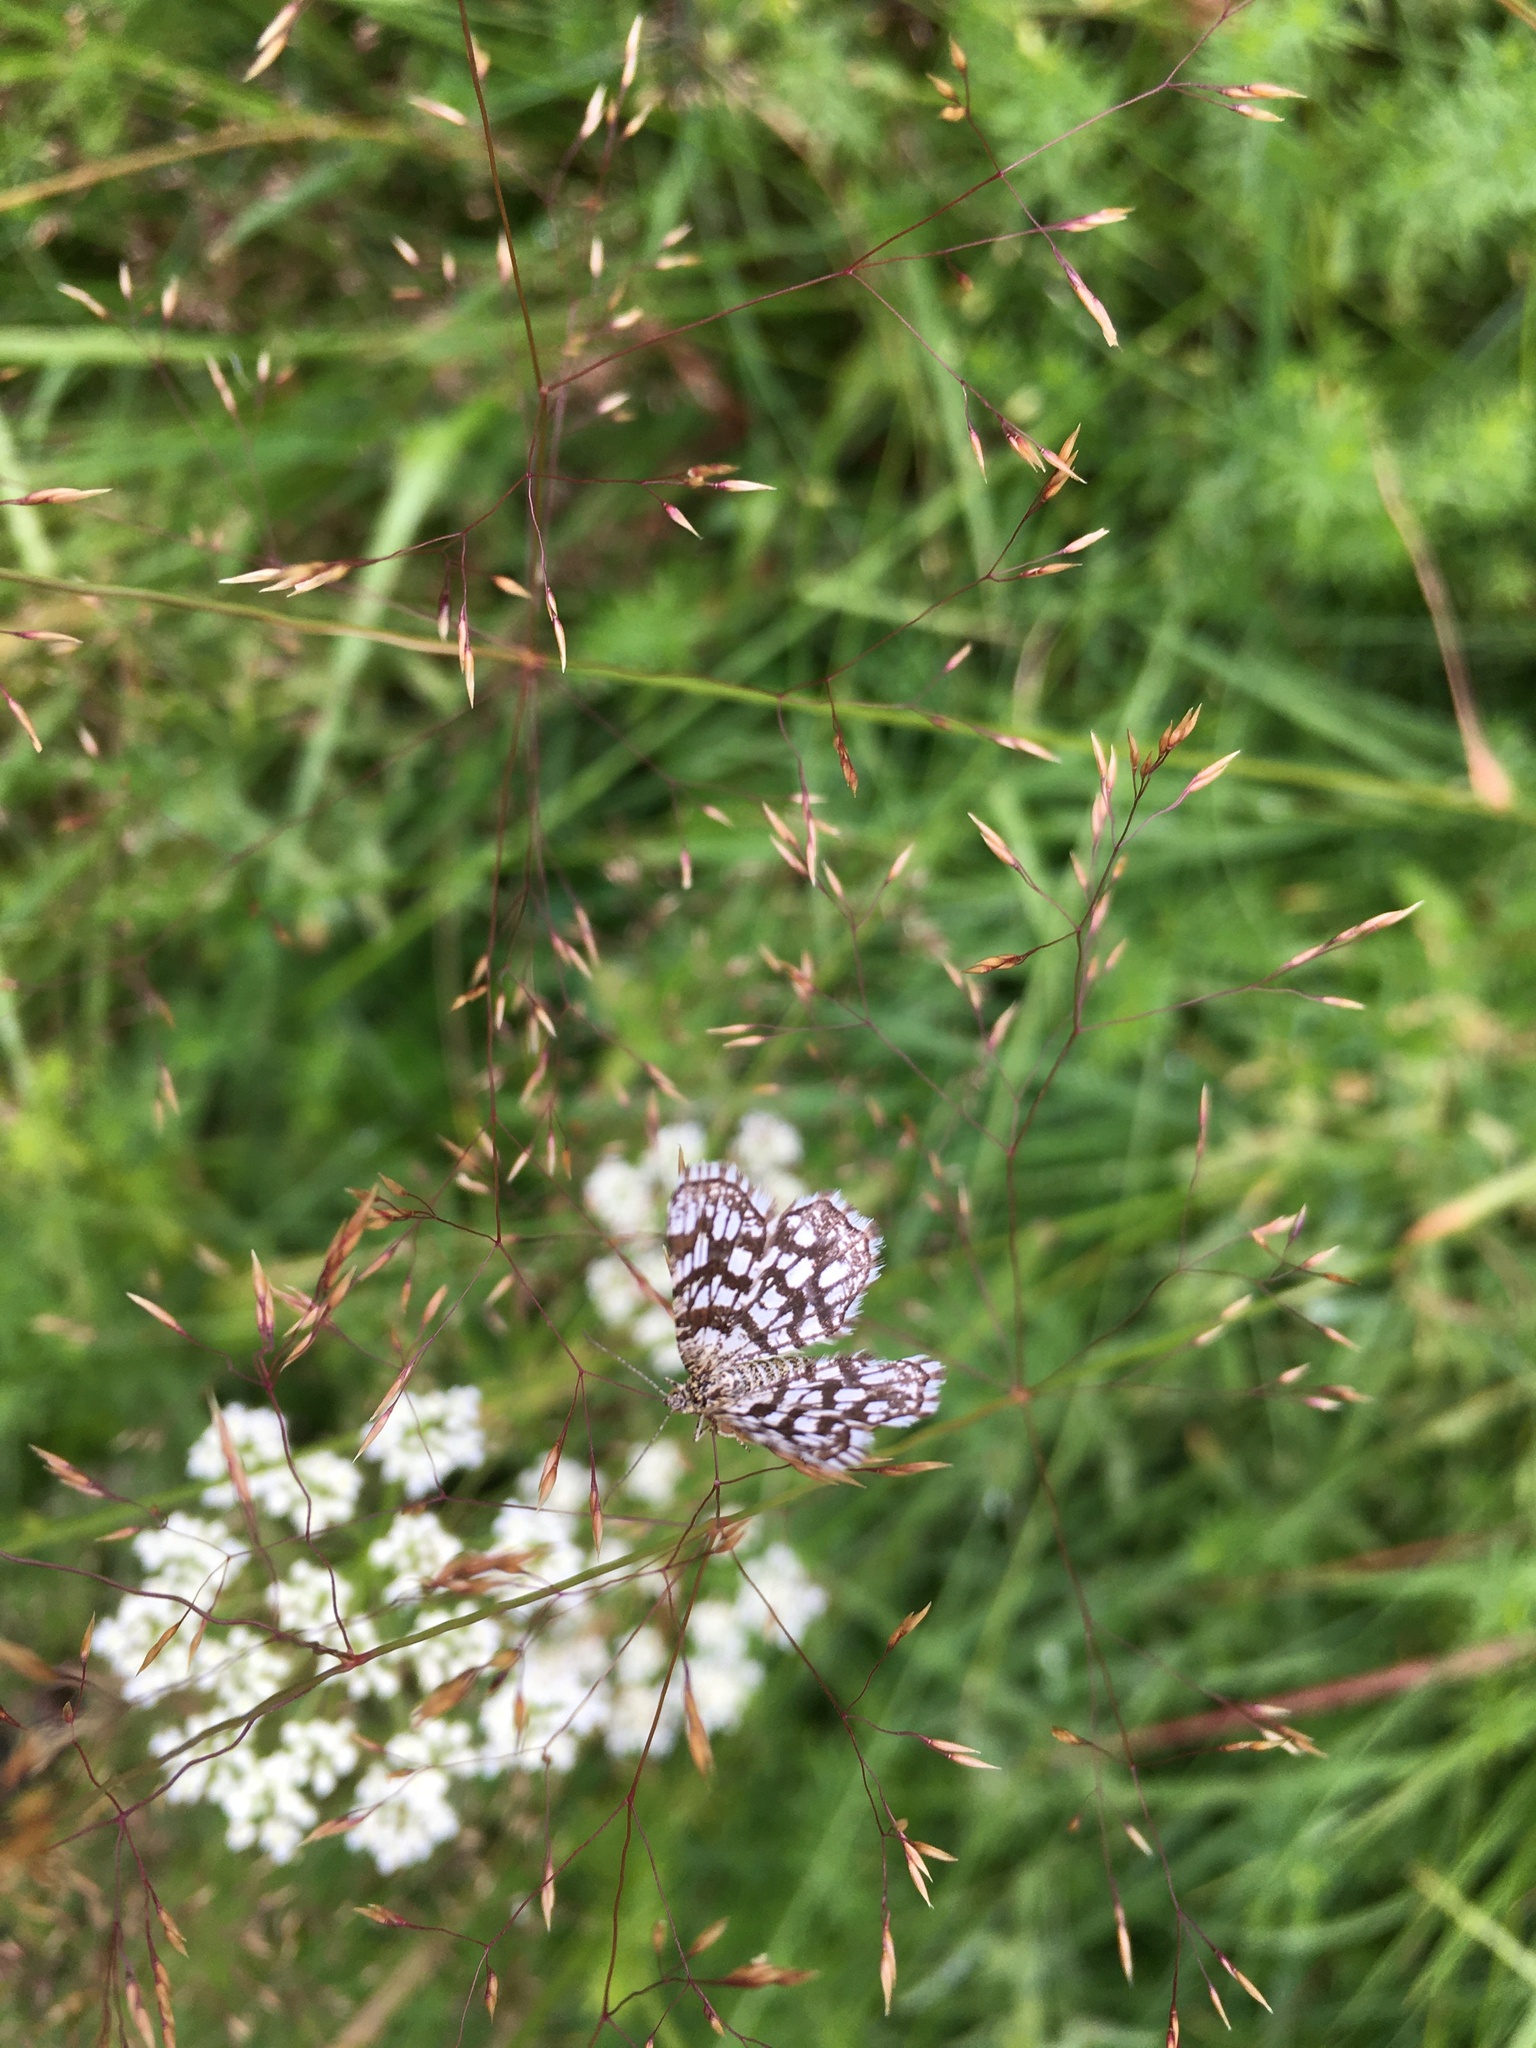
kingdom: Animalia
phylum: Arthropoda
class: Insecta
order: Lepidoptera
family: Geometridae
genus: Chiasmia
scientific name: Chiasmia clathrata
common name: Latticed heath
